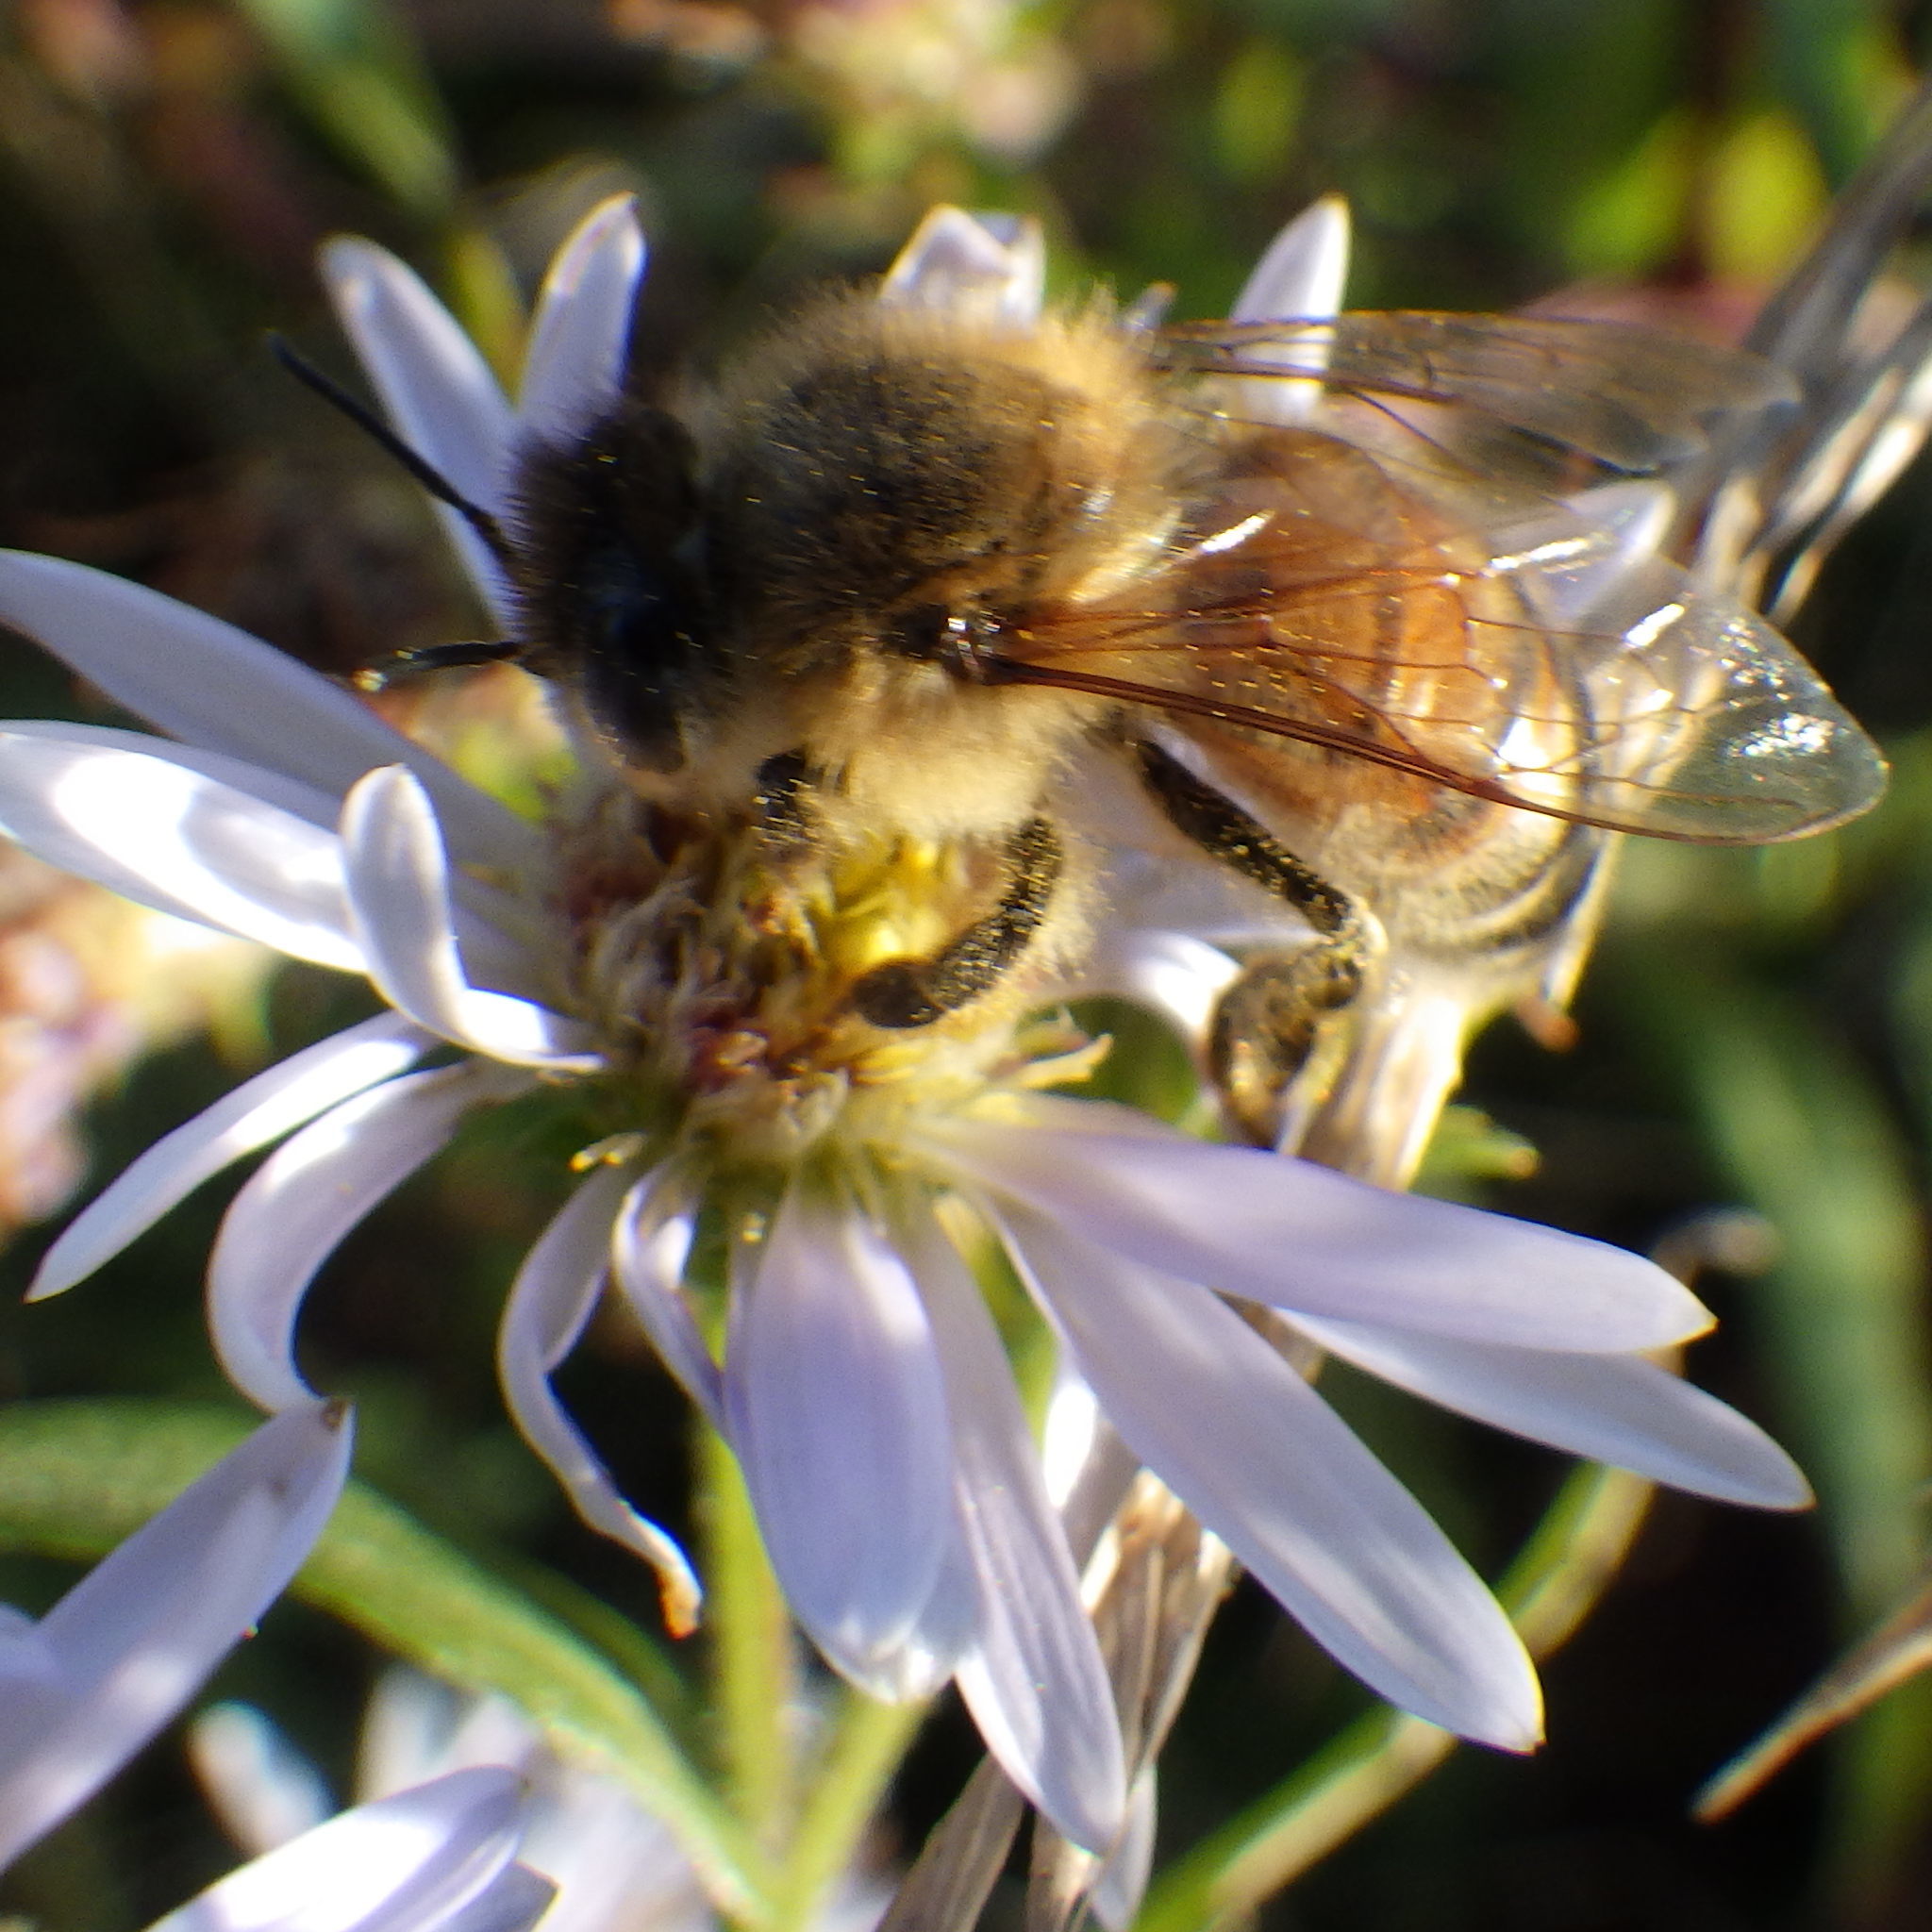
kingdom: Animalia
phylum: Arthropoda
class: Insecta
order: Hymenoptera
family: Apidae
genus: Apis
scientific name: Apis mellifera
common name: Honey bee
